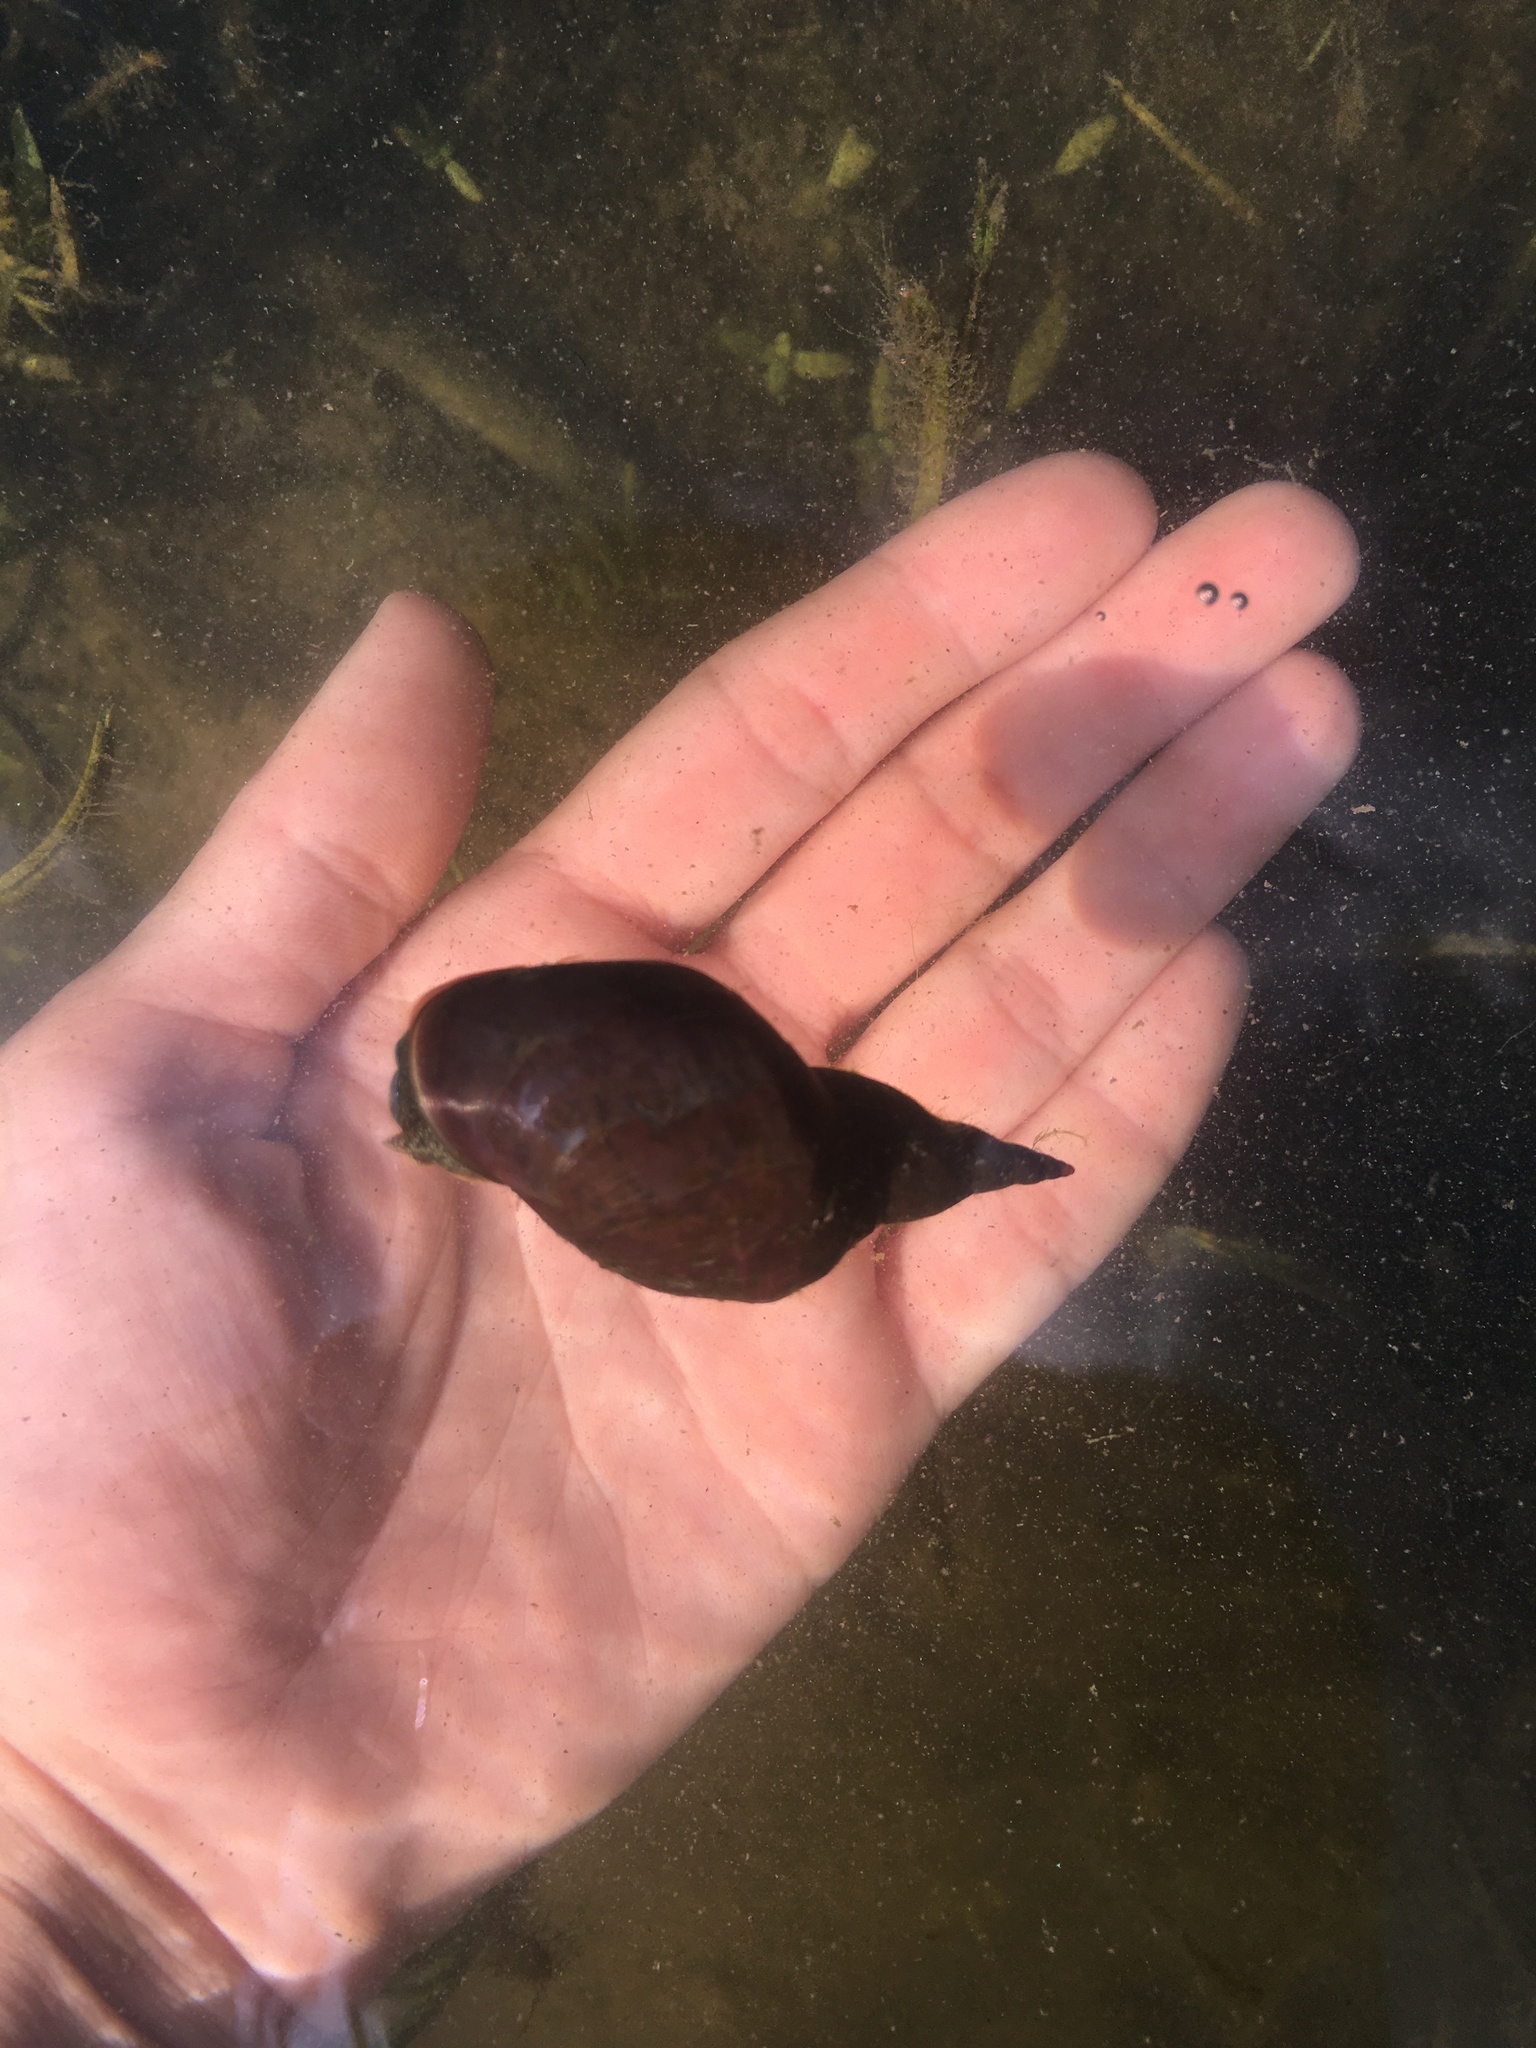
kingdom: Animalia
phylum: Mollusca
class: Gastropoda
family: Lymnaeidae
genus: Lymnaea
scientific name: Lymnaea stagnalis
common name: Great pond snail
